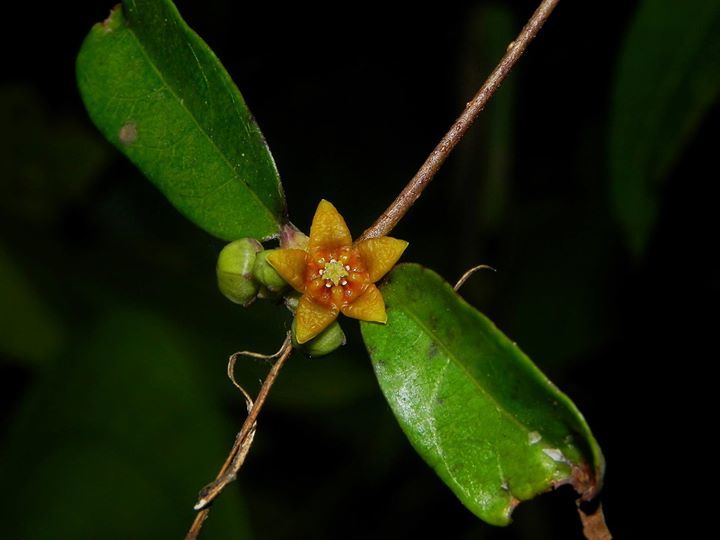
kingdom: Plantae
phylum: Tracheophyta
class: Magnoliopsida
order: Gentianales
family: Apocynaceae
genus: Hemidesmus
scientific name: Hemidesmus indicus
